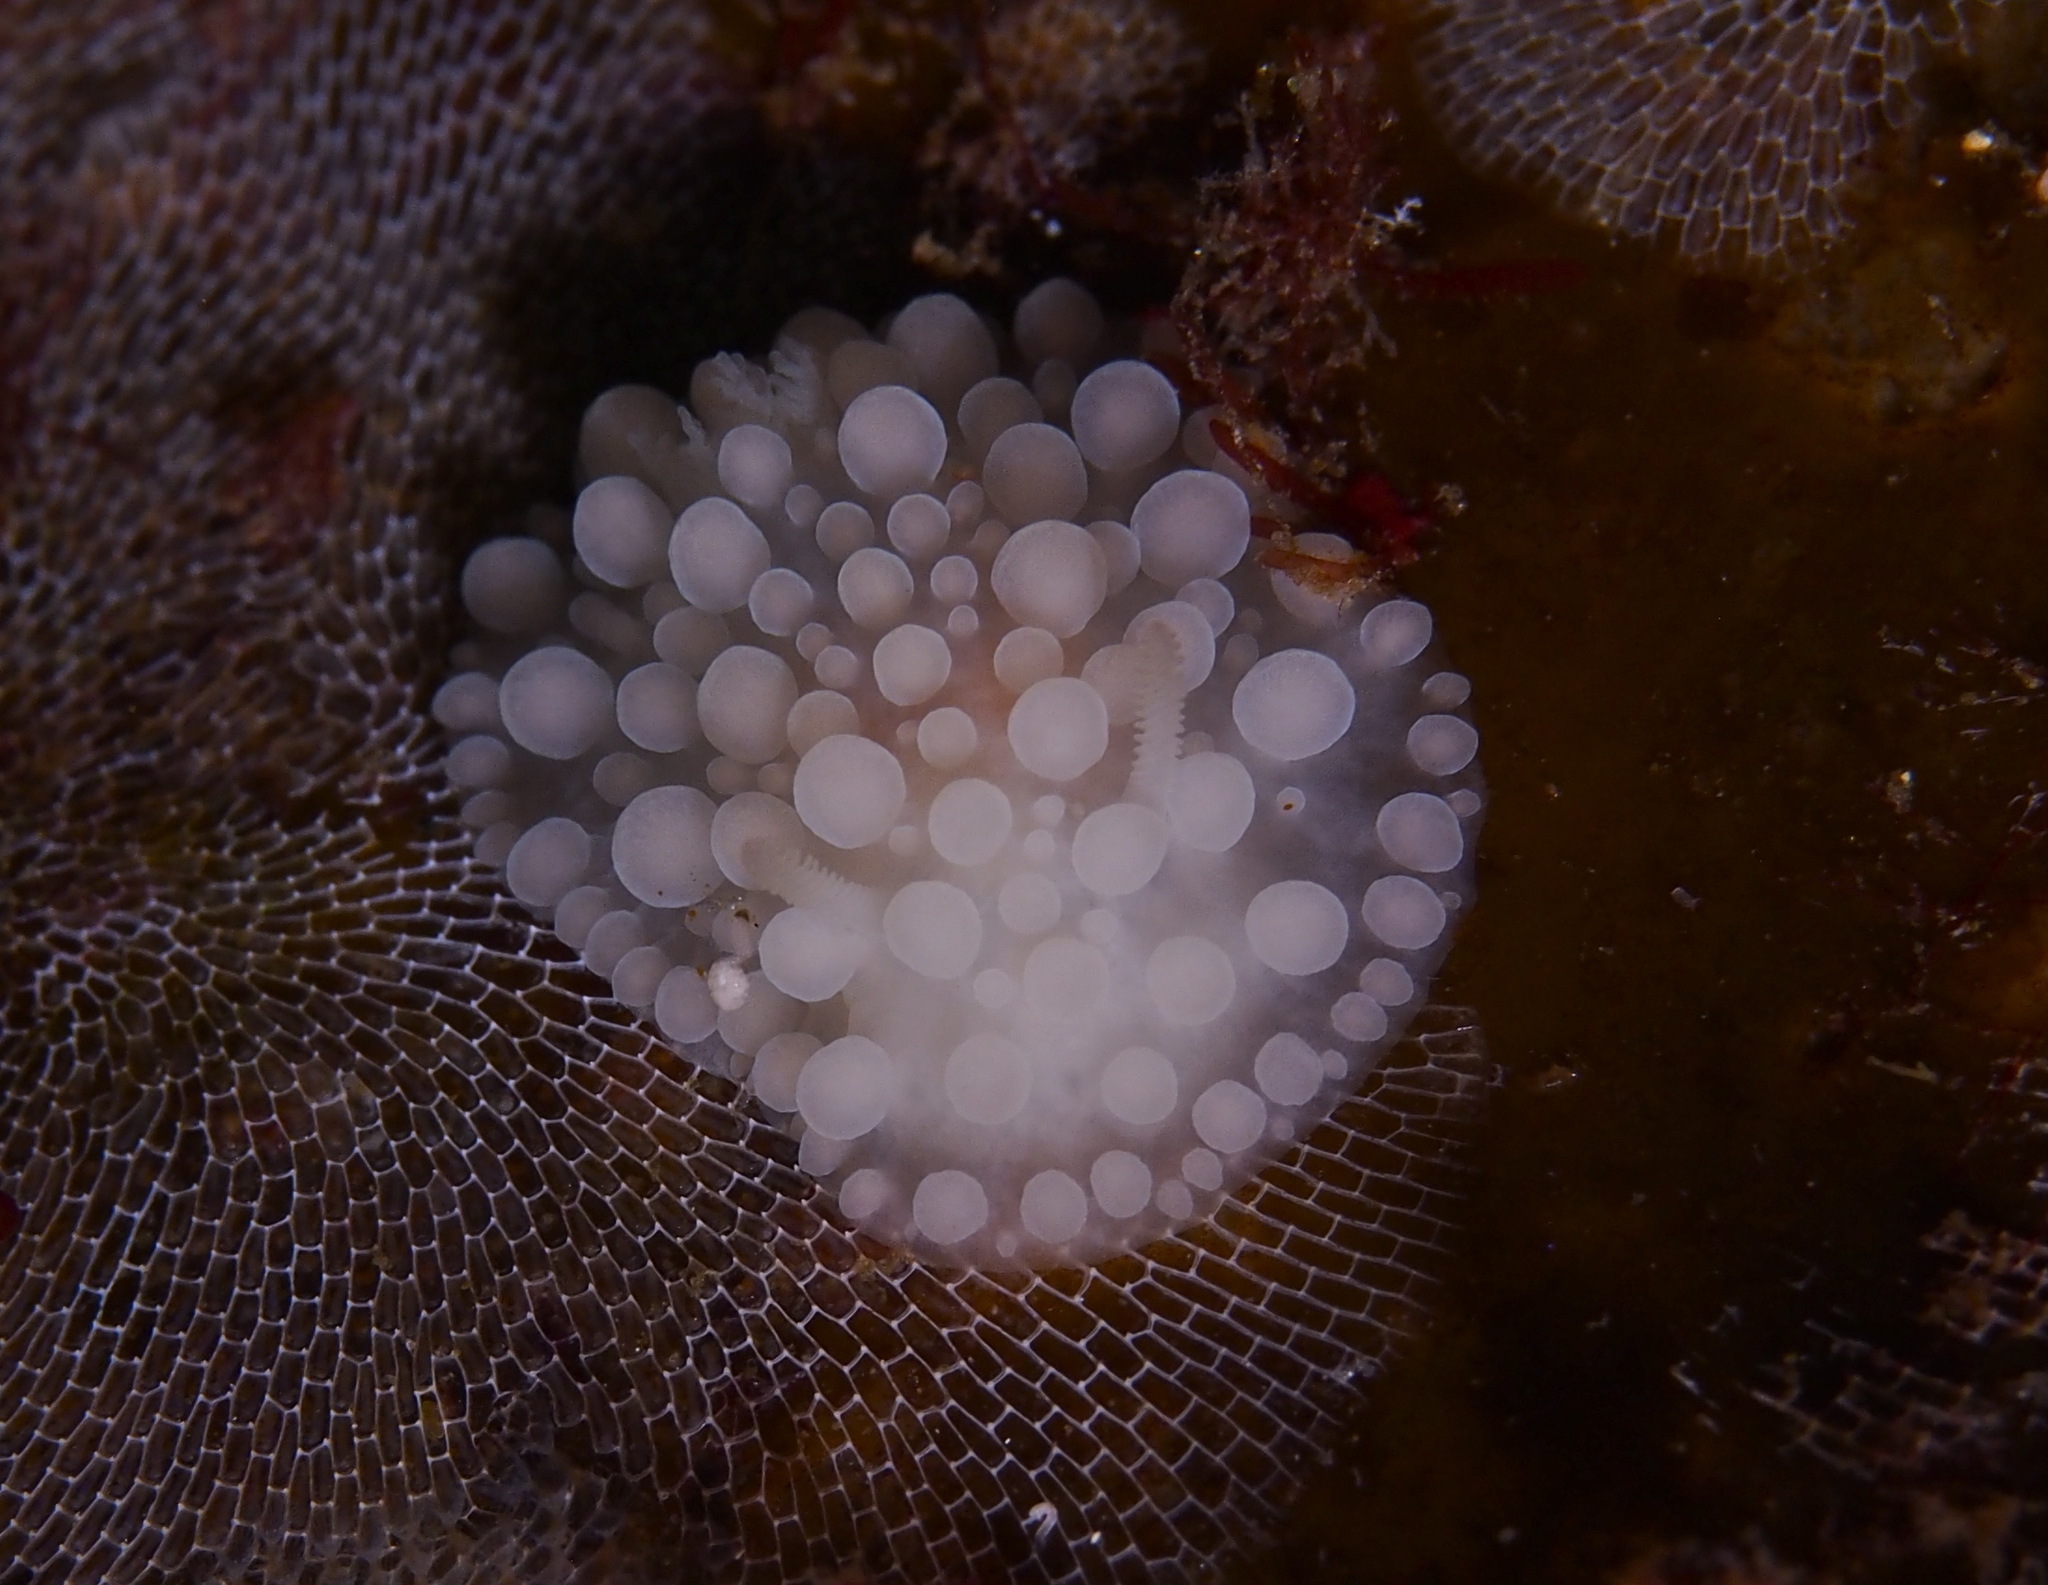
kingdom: Animalia
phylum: Mollusca
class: Gastropoda
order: Nudibranchia
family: Onchidorididae
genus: Adalaria
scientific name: Adalaria loveni
